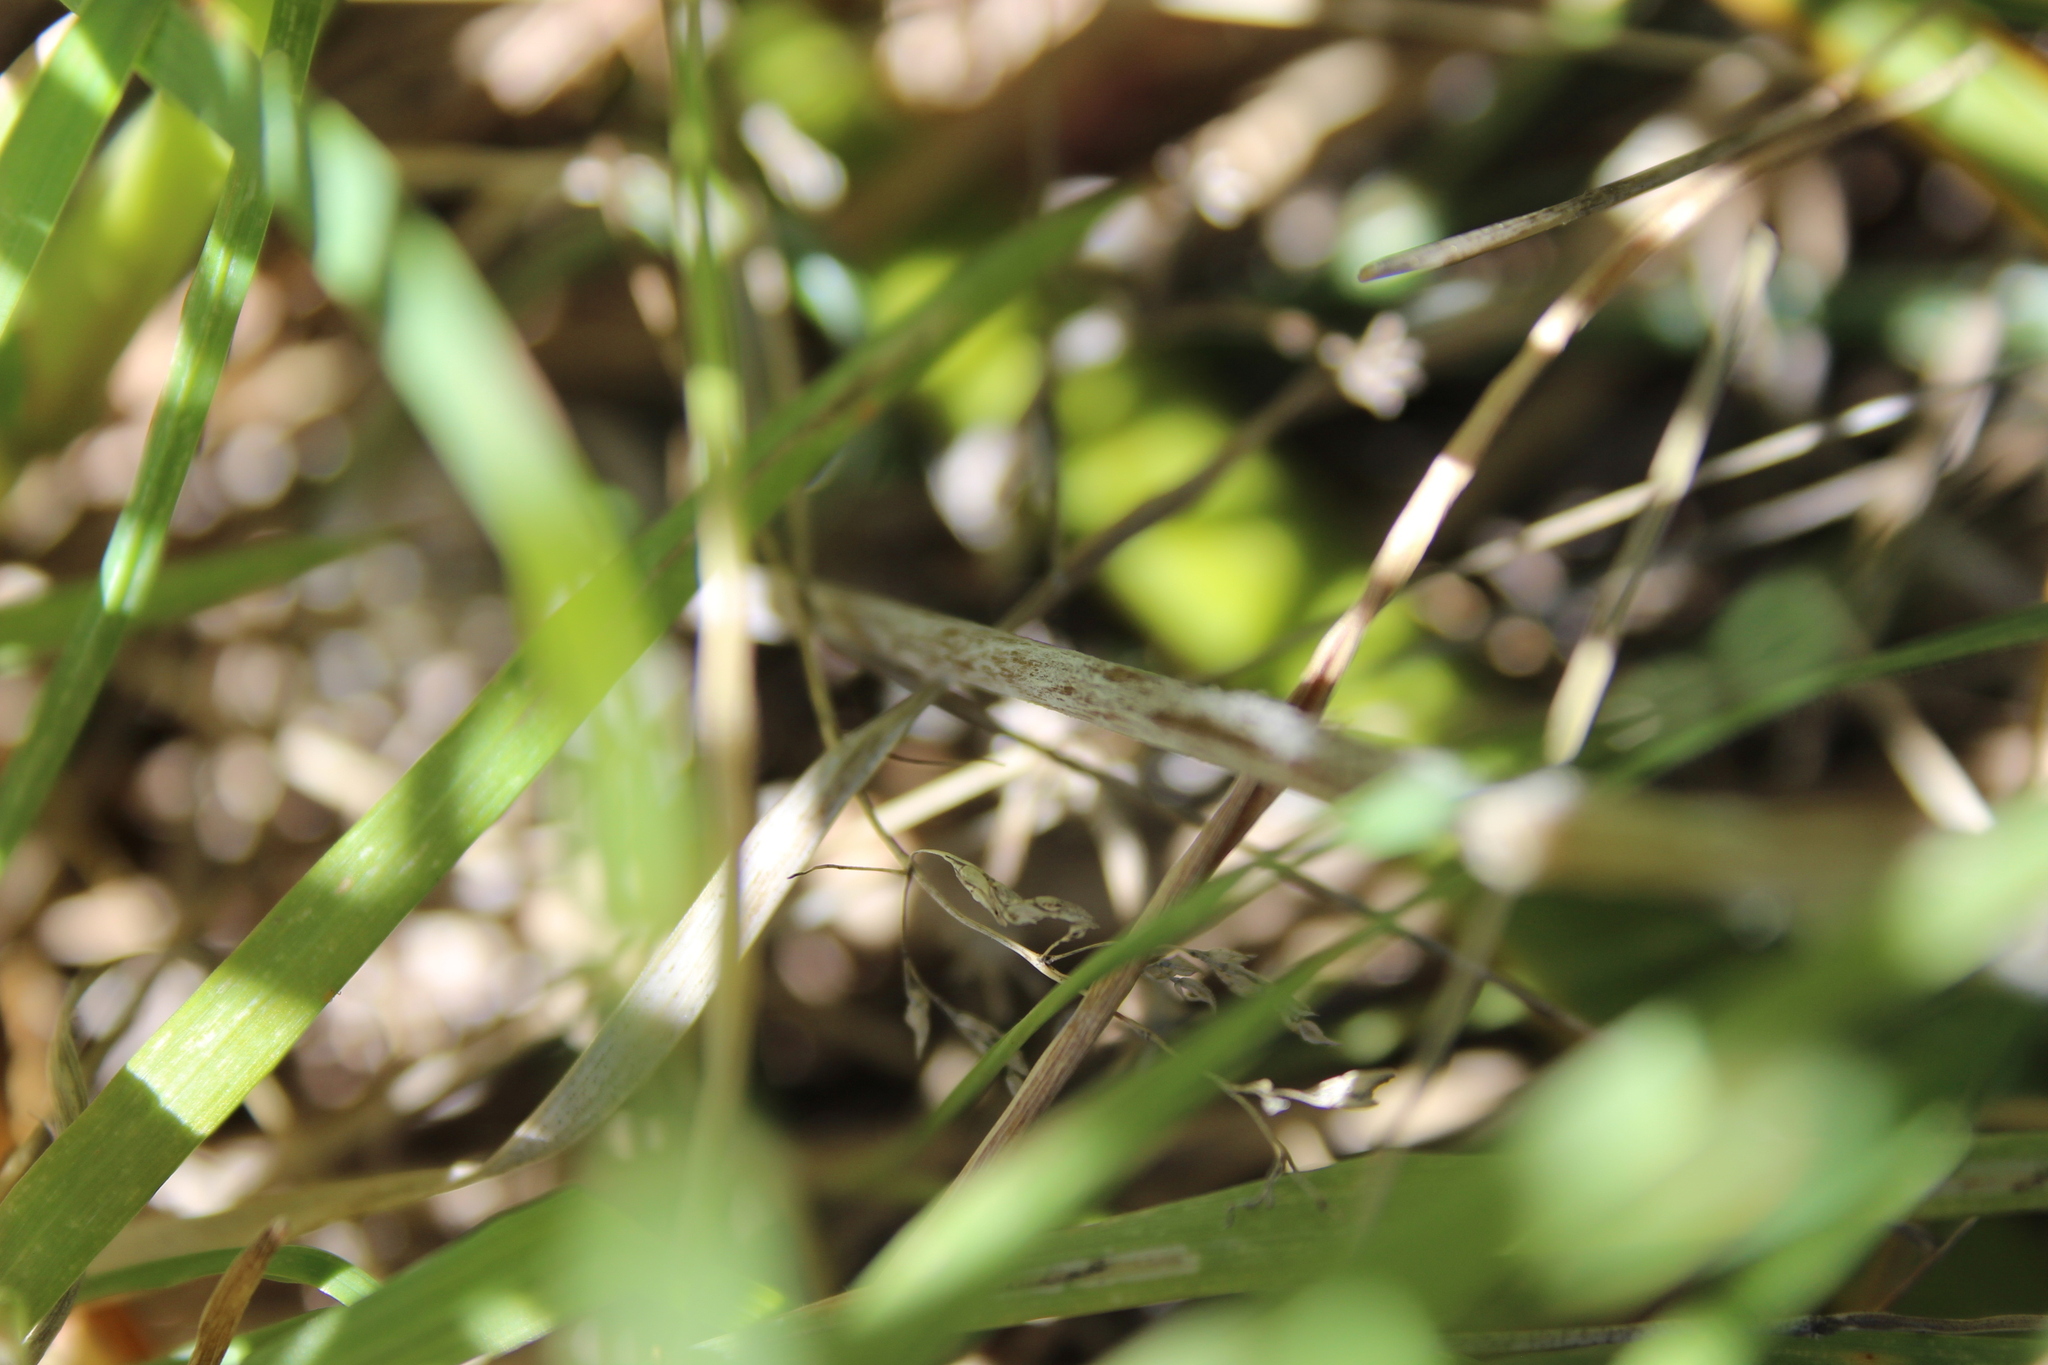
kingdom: Plantae
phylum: Tracheophyta
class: Magnoliopsida
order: Asterales
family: Asteraceae
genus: Celmisia
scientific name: Celmisia gracilenta
